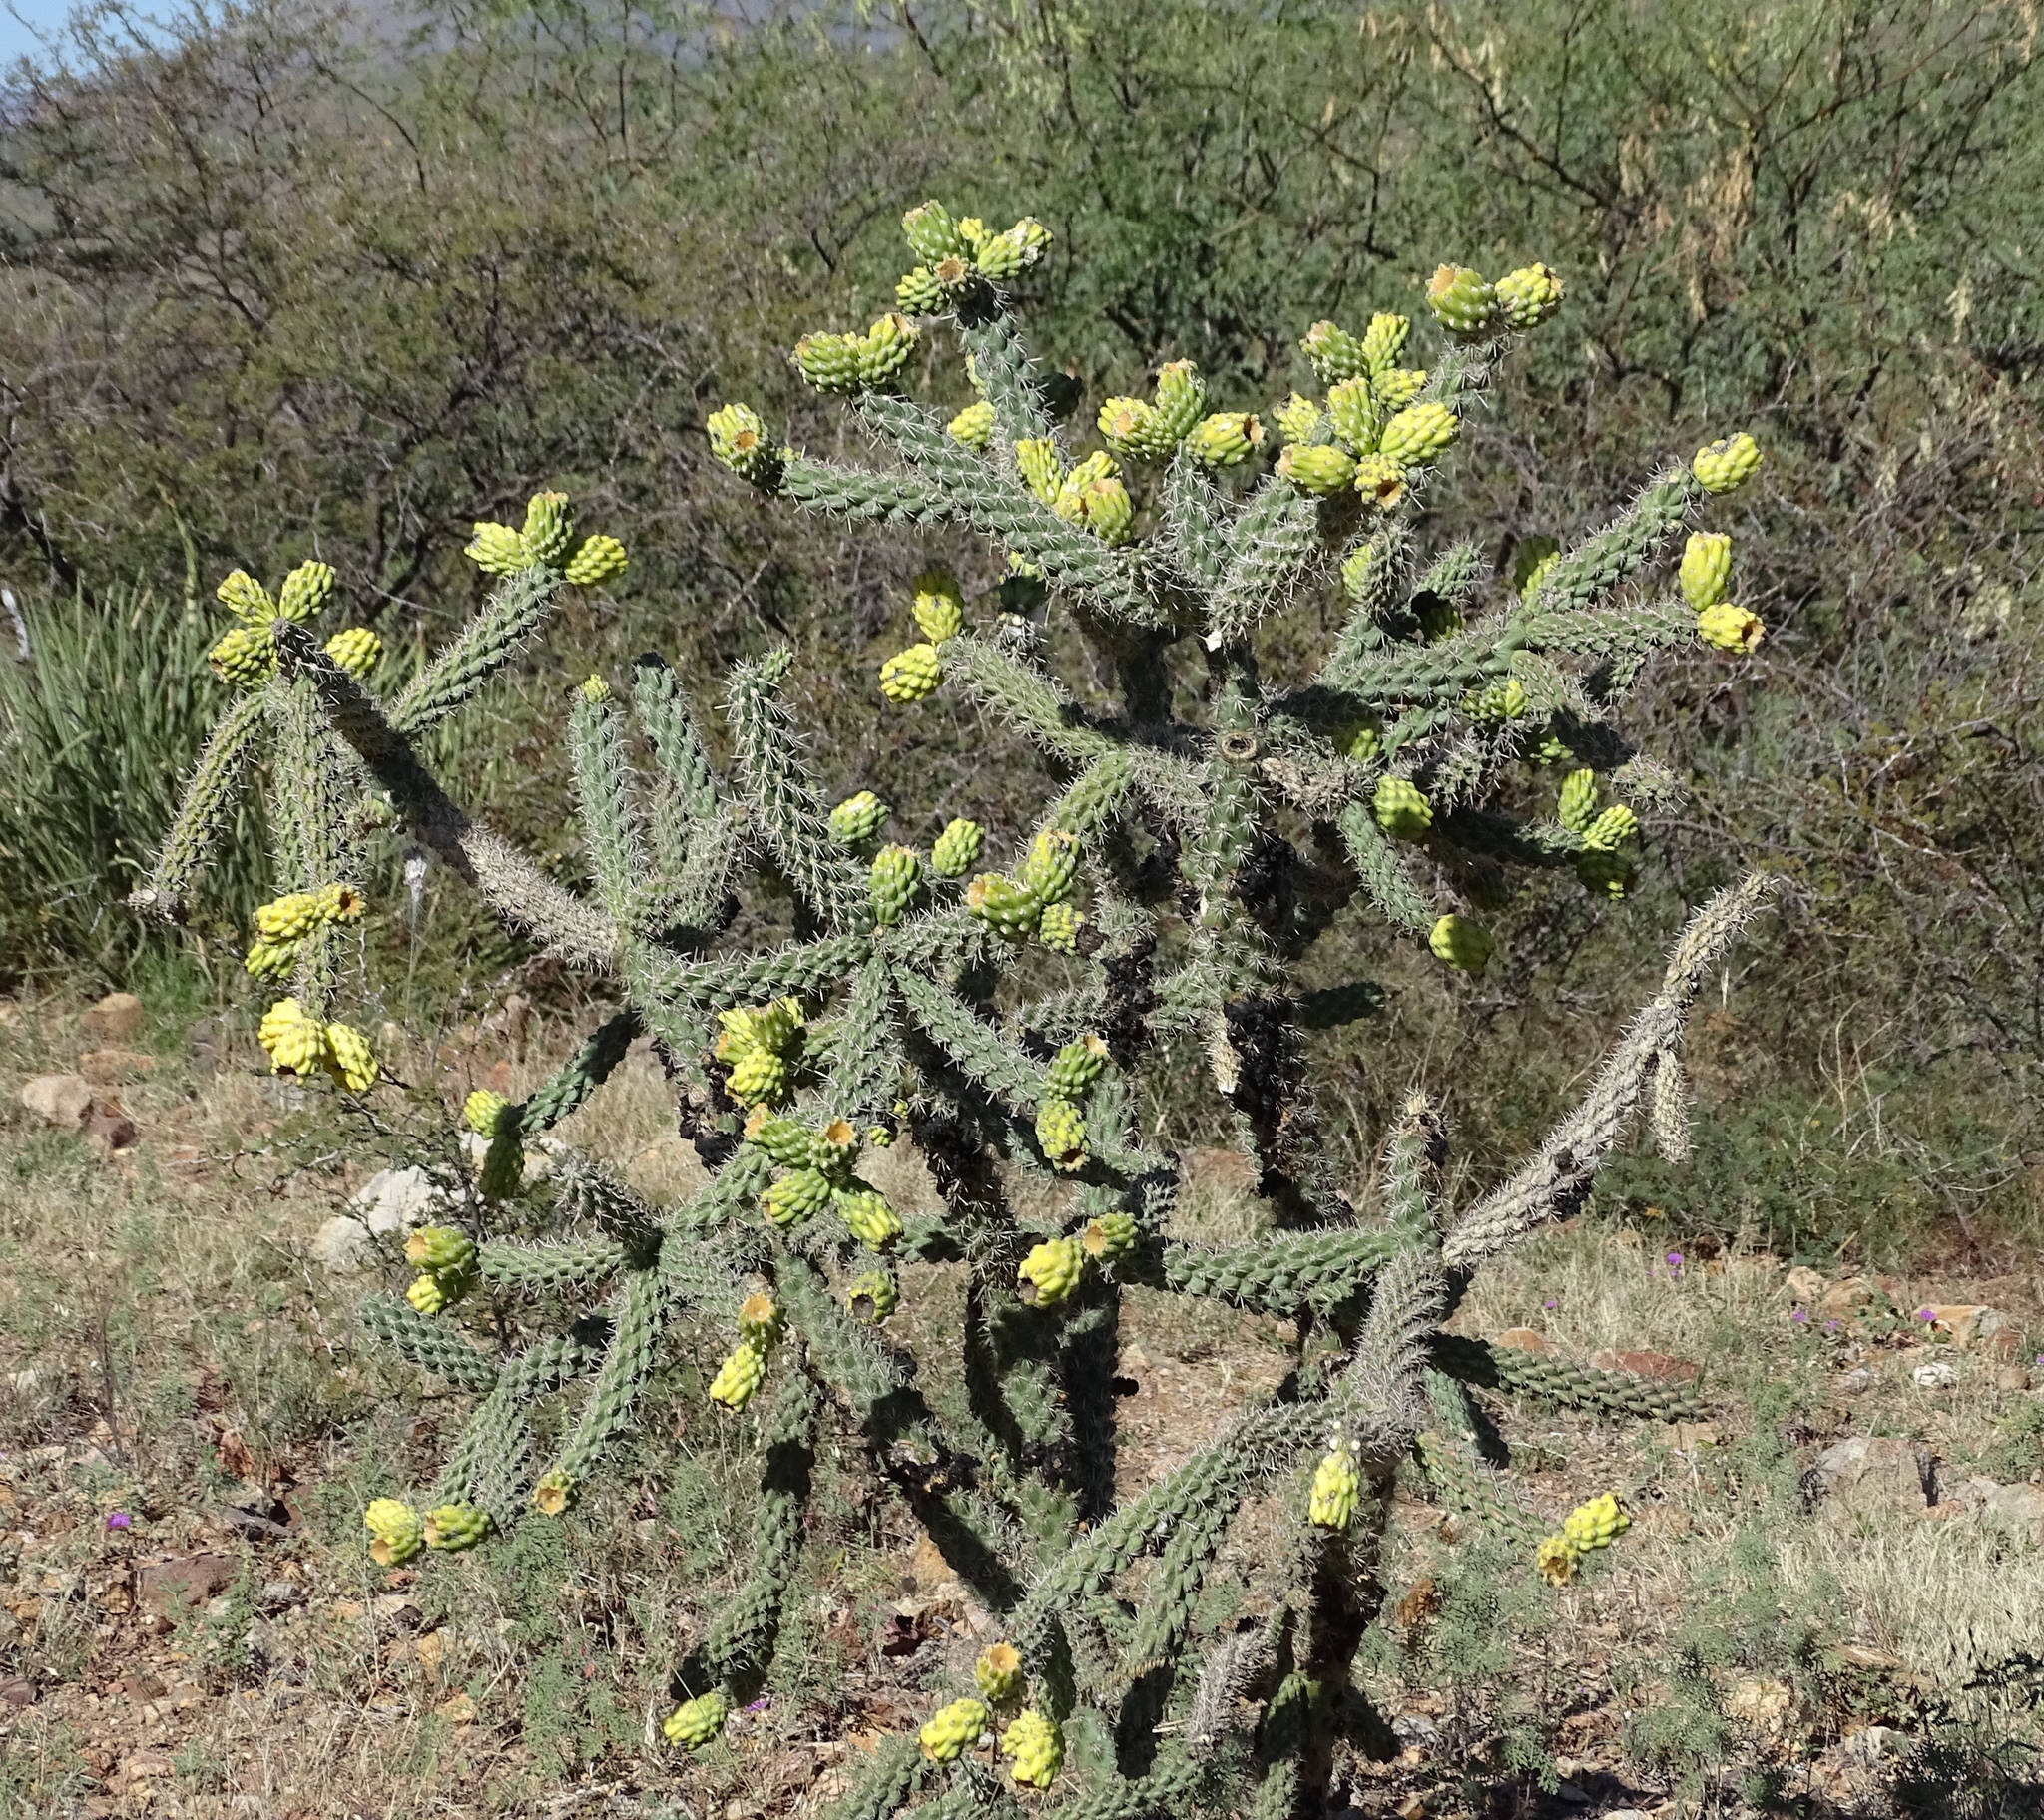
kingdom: Plantae
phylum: Tracheophyta
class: Magnoliopsida
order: Caryophyllales
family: Cactaceae
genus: Cylindropuntia
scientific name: Cylindropuntia imbricata
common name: Candelabrum cactus
